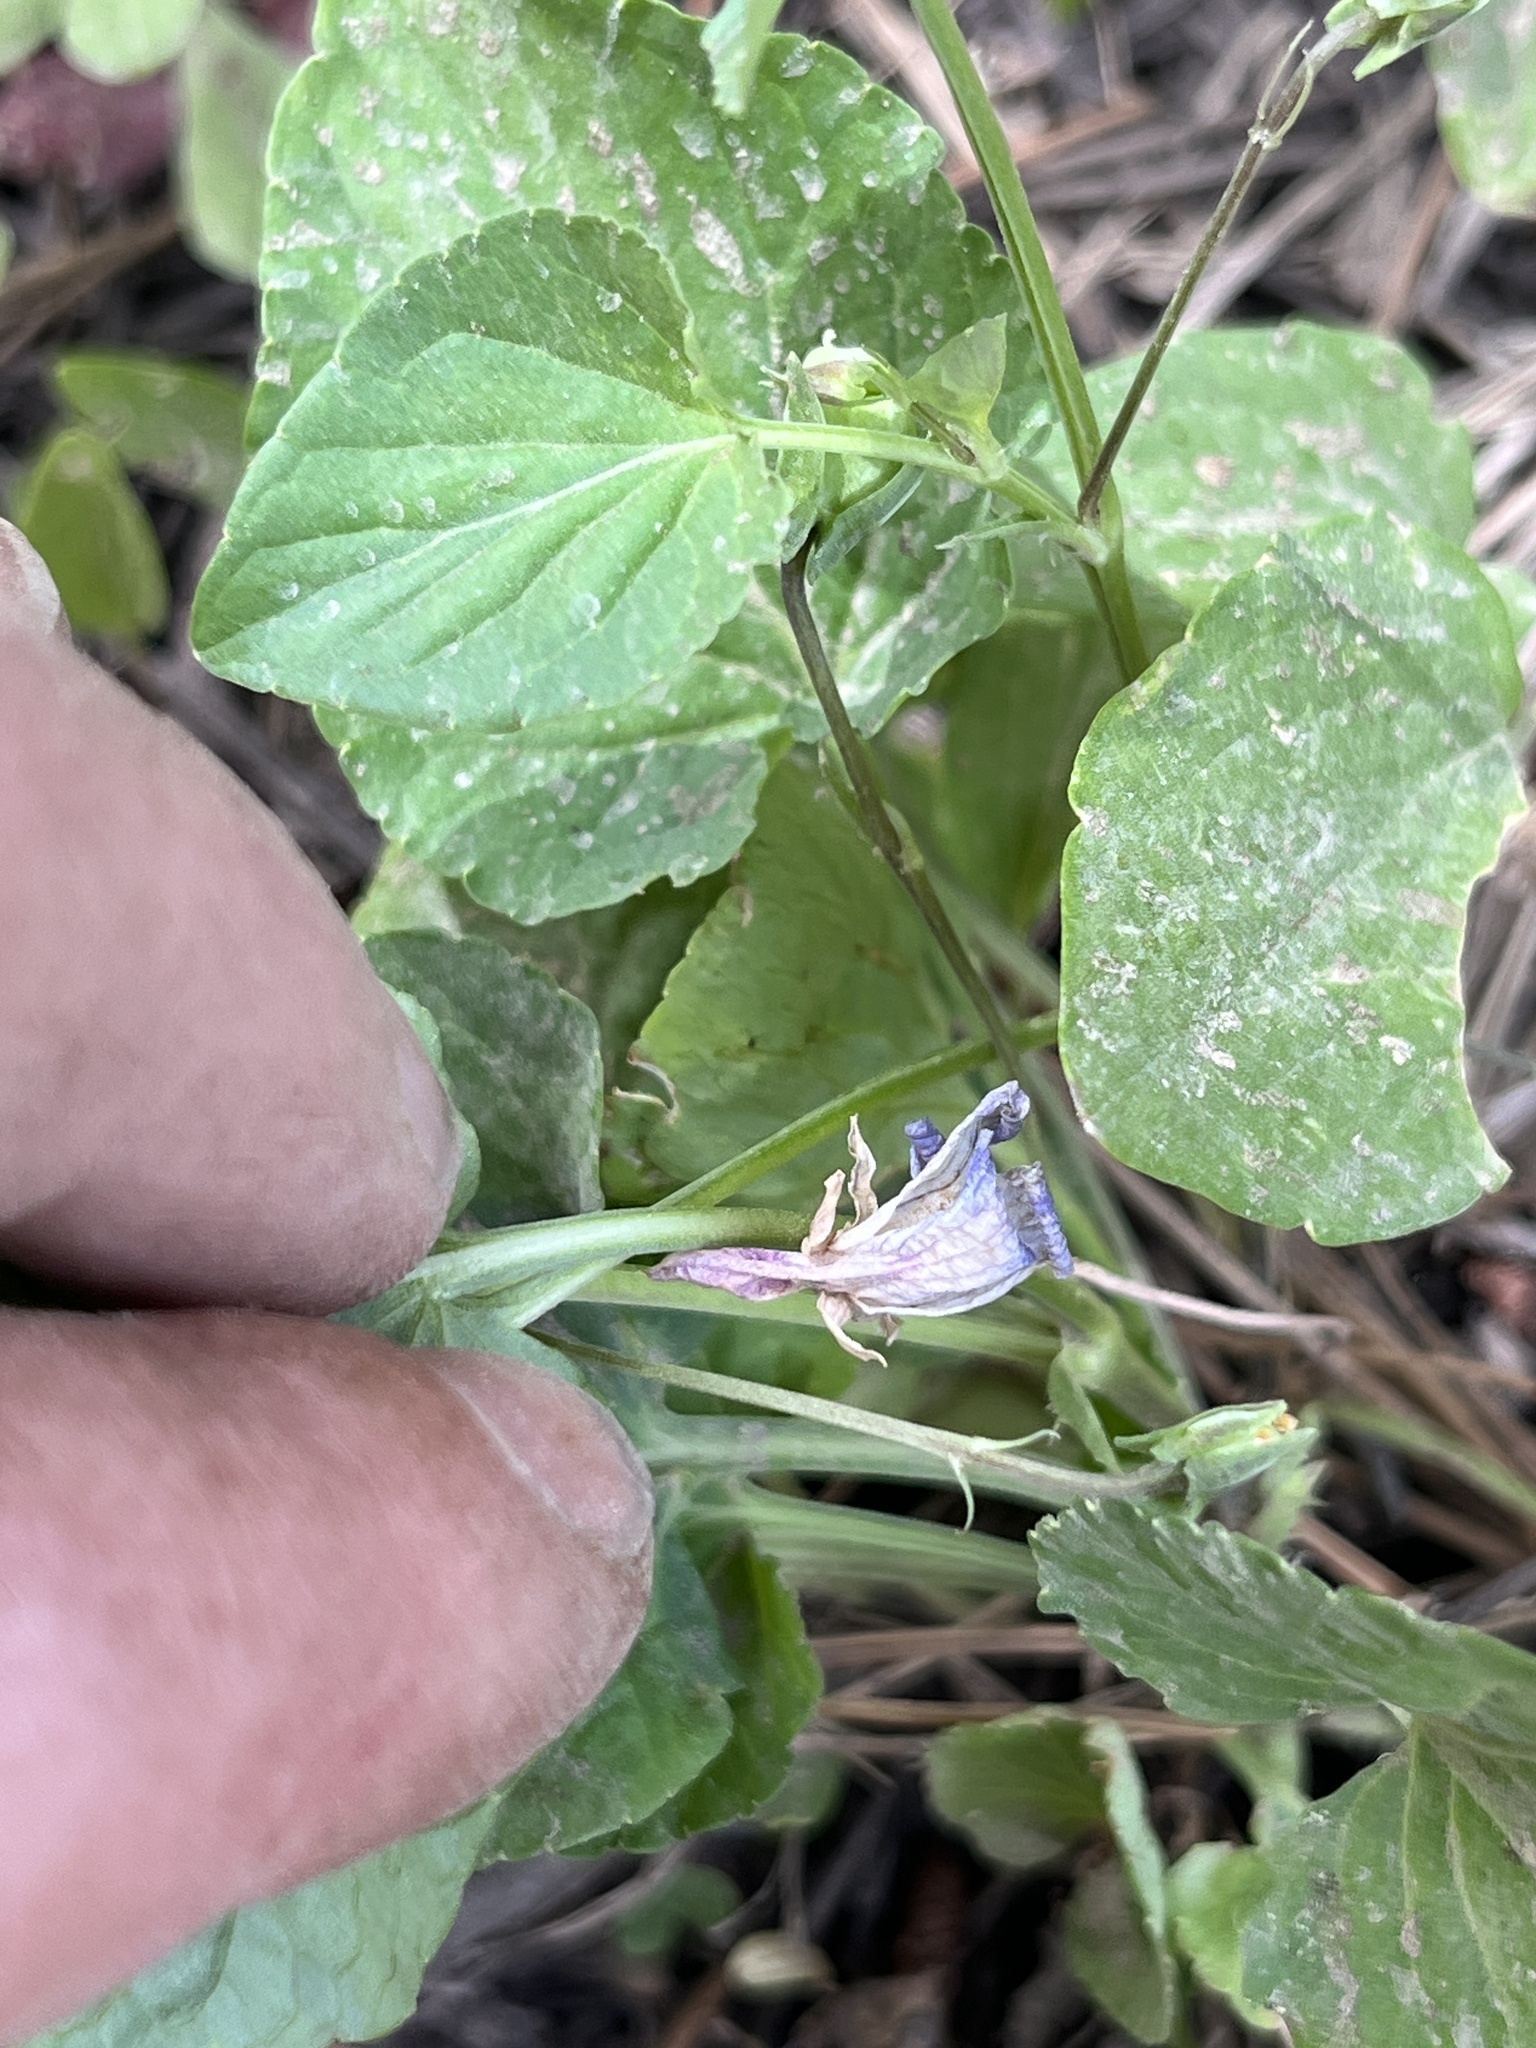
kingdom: Plantae
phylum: Tracheophyta
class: Magnoliopsida
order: Malpighiales
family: Violaceae
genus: Viola
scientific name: Viola adunca
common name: Sand violet
